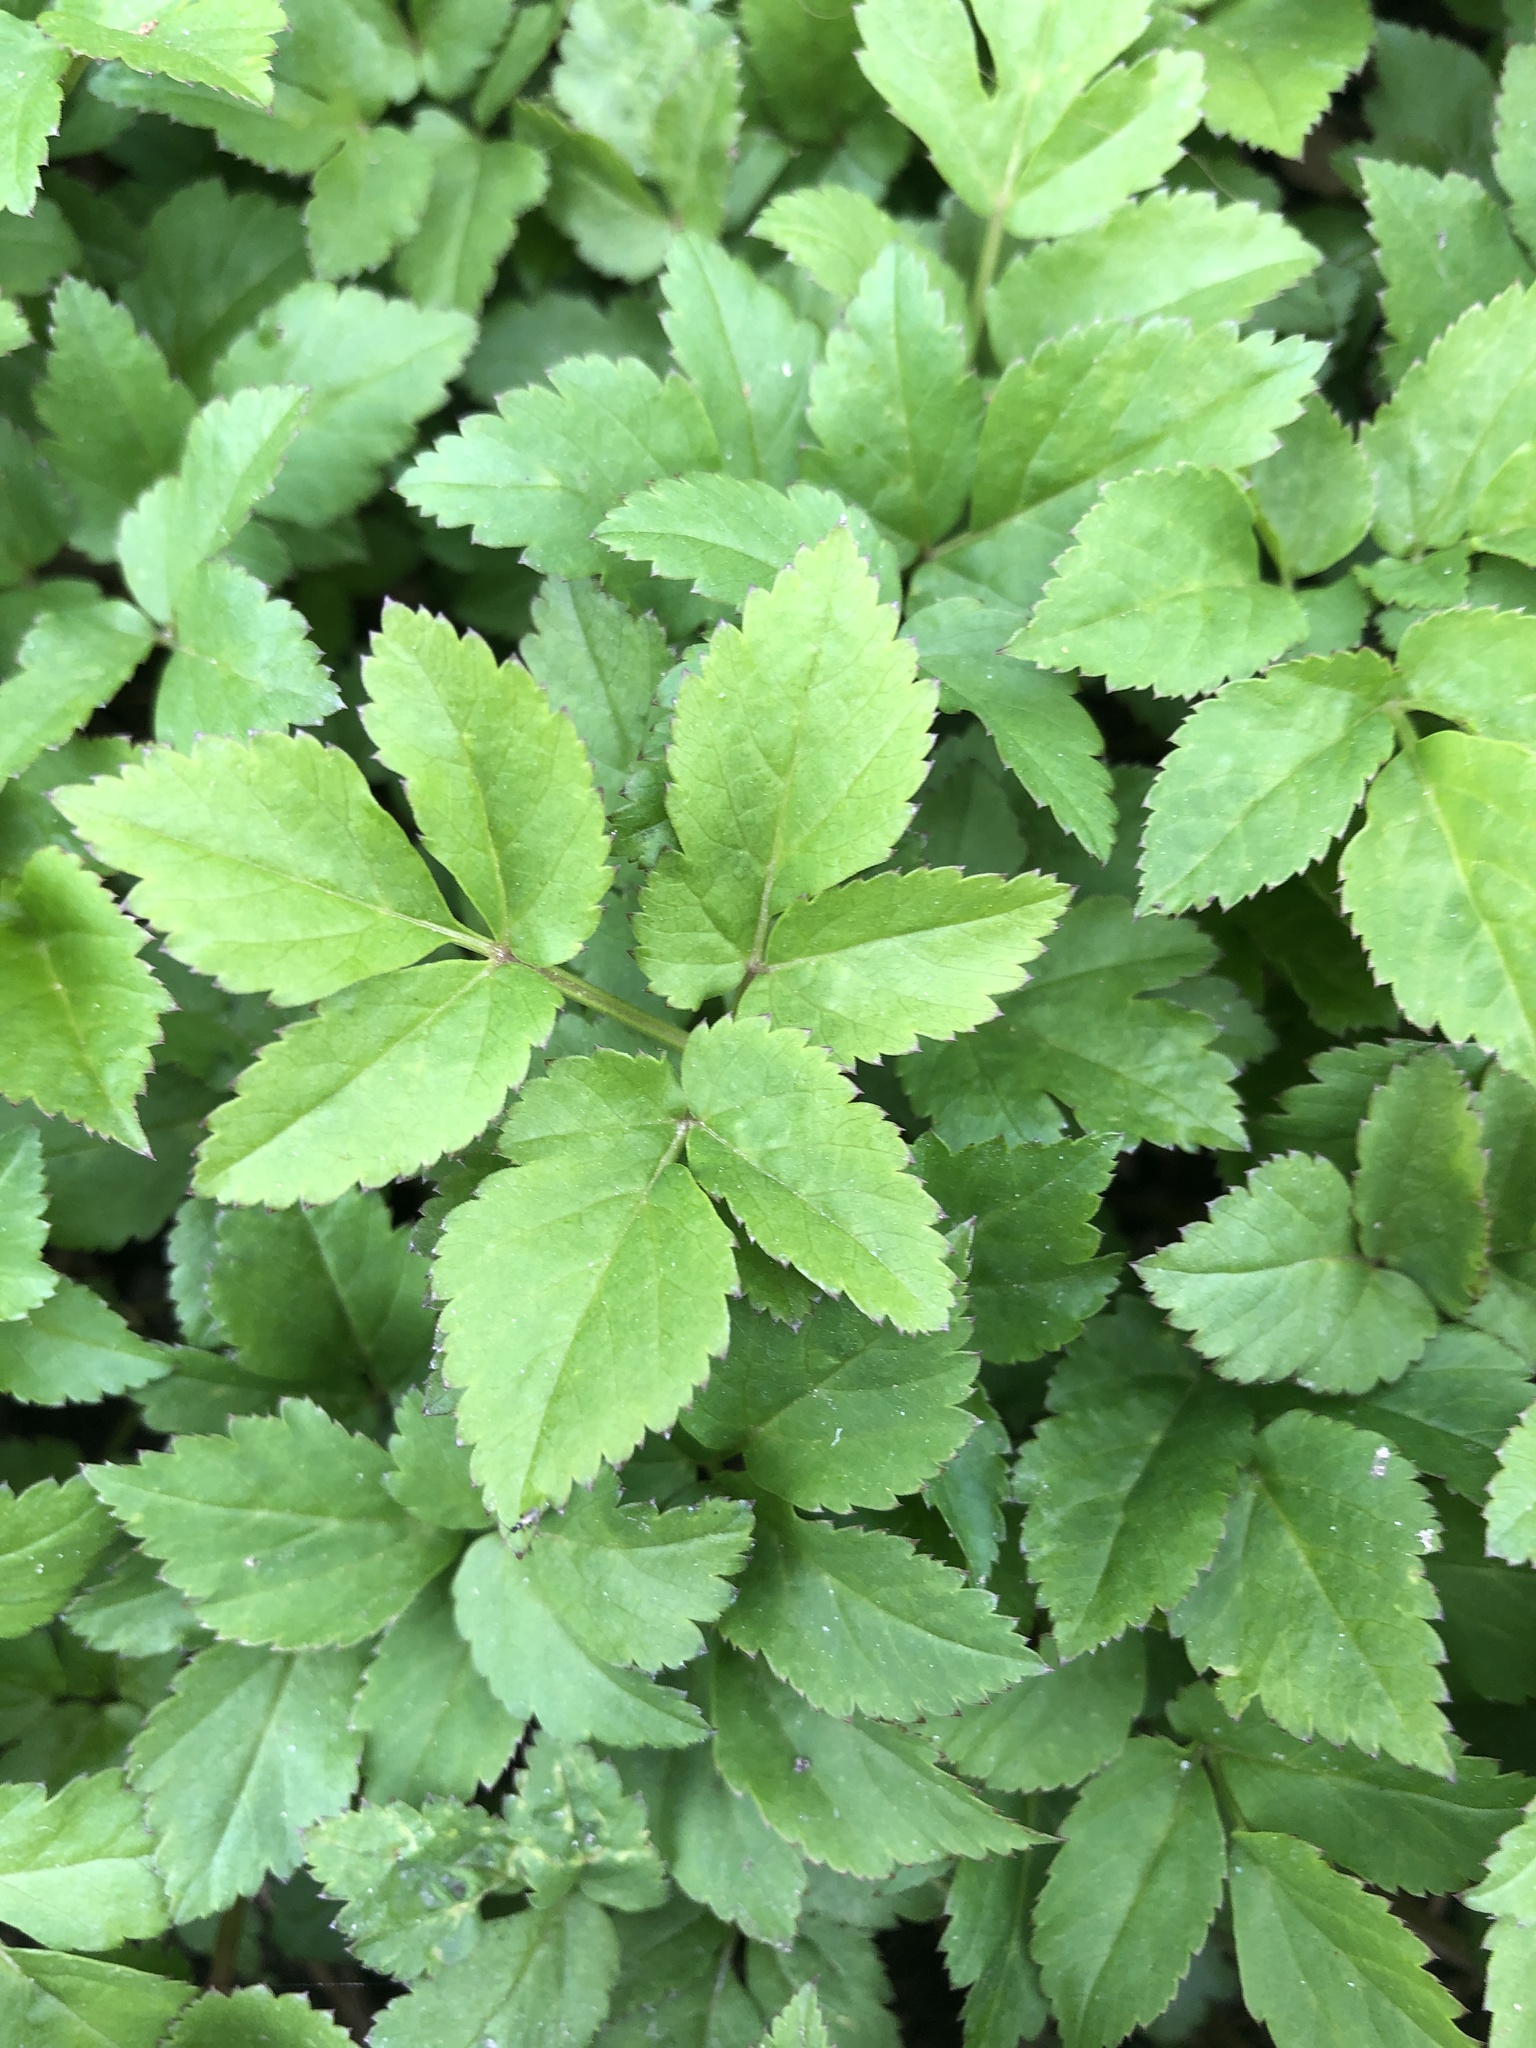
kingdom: Plantae
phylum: Tracheophyta
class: Magnoliopsida
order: Apiales
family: Apiaceae
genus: Aegopodium
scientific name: Aegopodium podagraria
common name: Ground-elder
